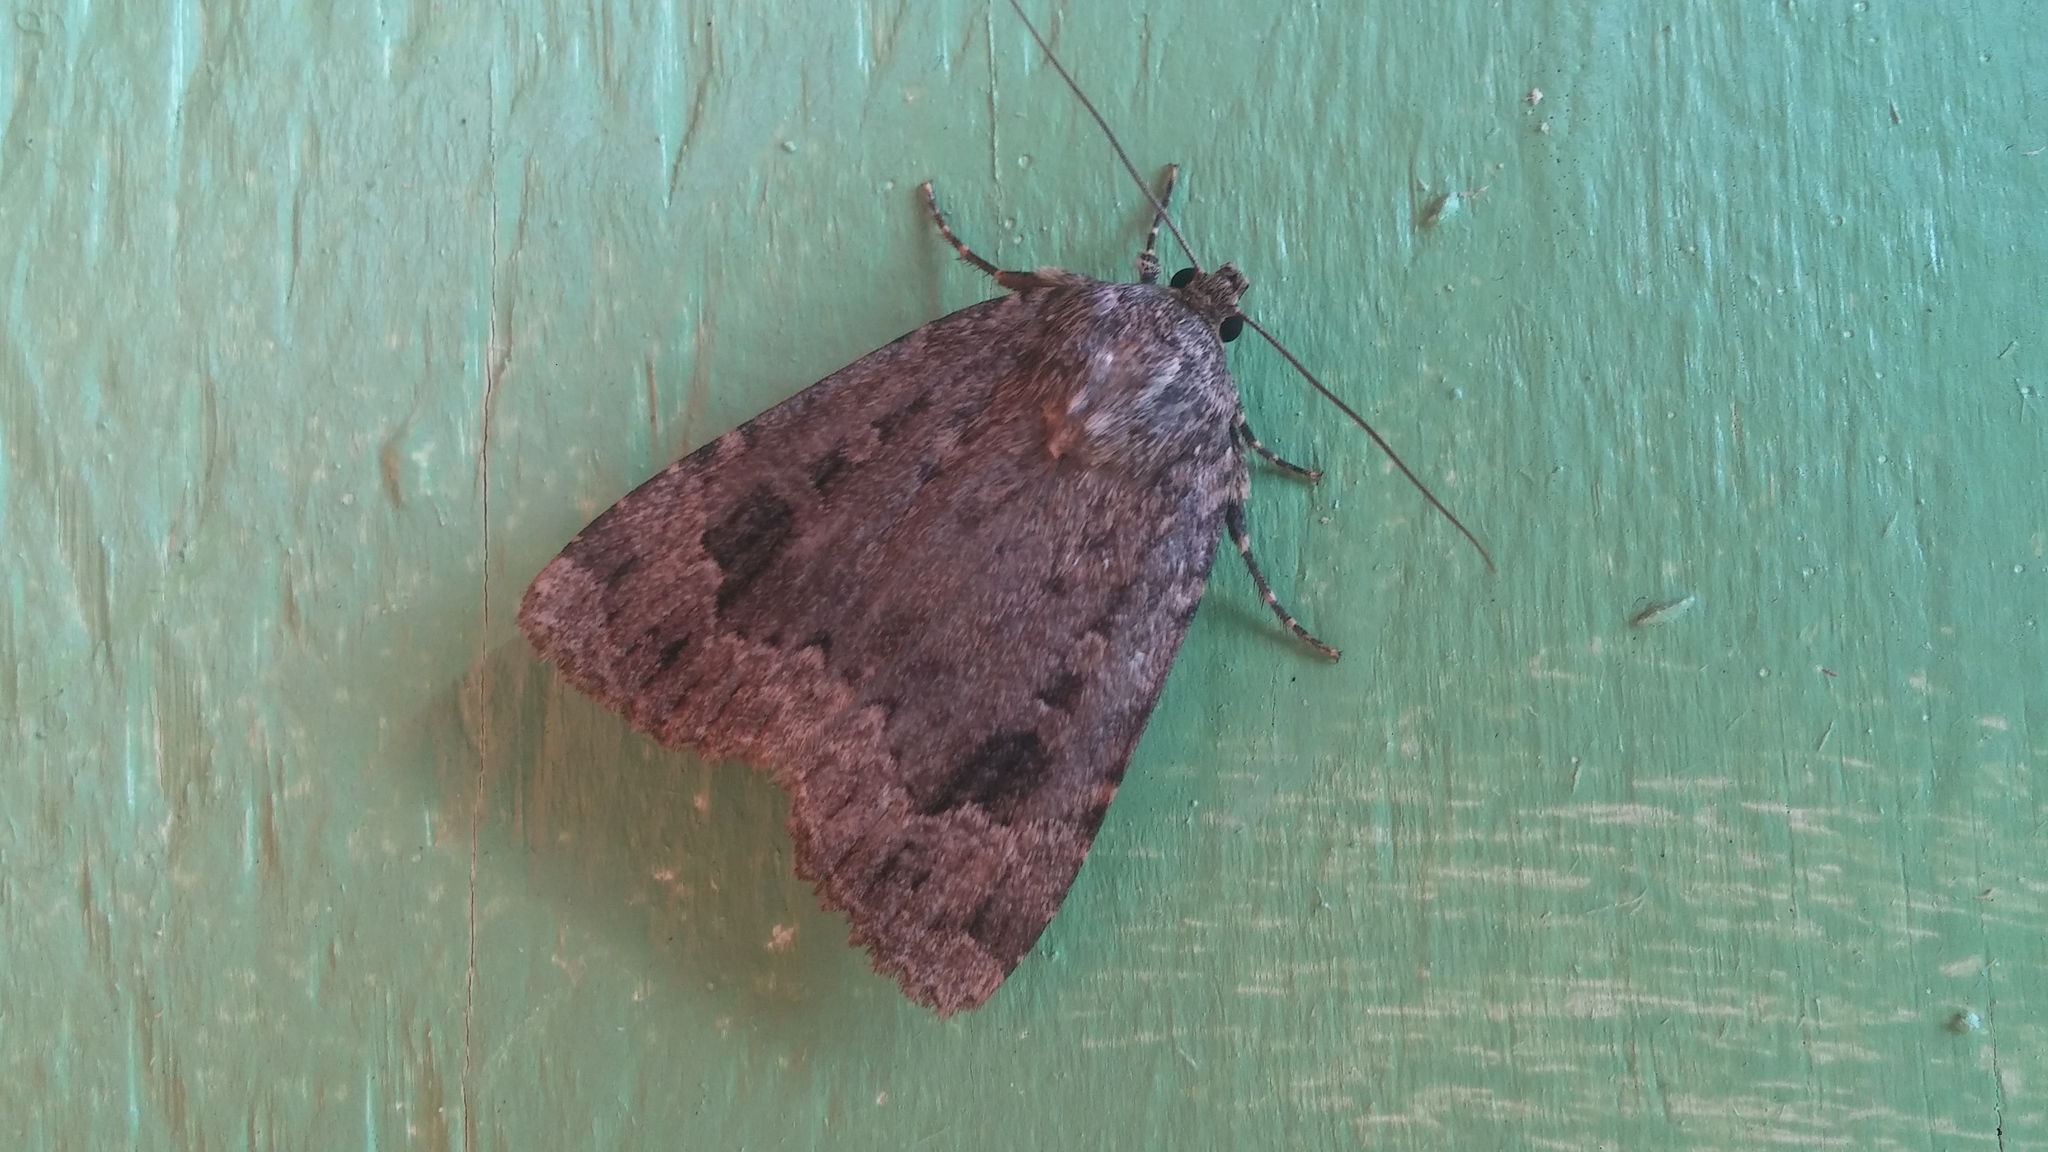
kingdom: Animalia
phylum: Arthropoda
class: Insecta
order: Lepidoptera
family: Noctuidae
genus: Amphipyra
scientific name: Amphipyra pyramidoides
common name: American copper underwing
